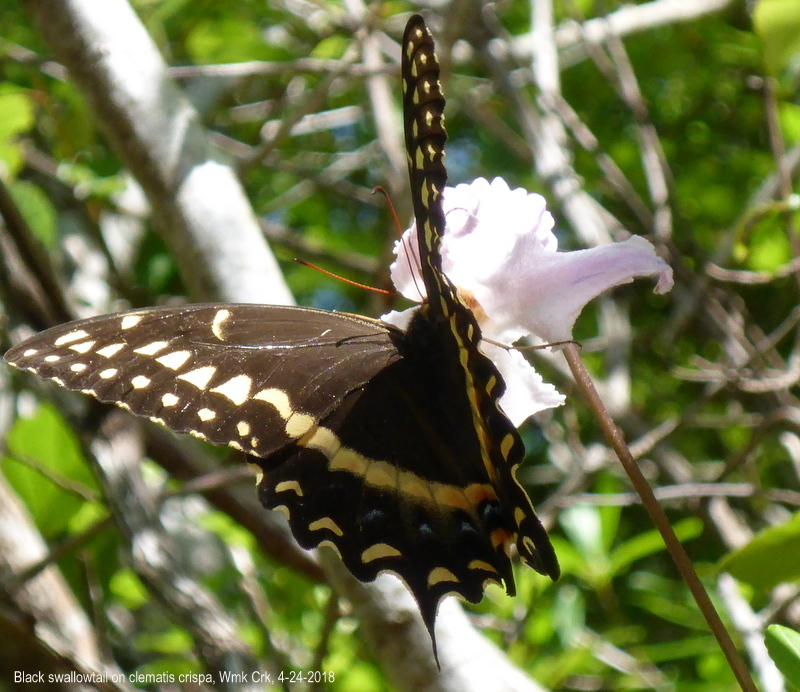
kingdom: Animalia
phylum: Arthropoda
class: Insecta
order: Lepidoptera
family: Papilionidae
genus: Papilio
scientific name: Papilio palamedes
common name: Palamedes swallowtail
